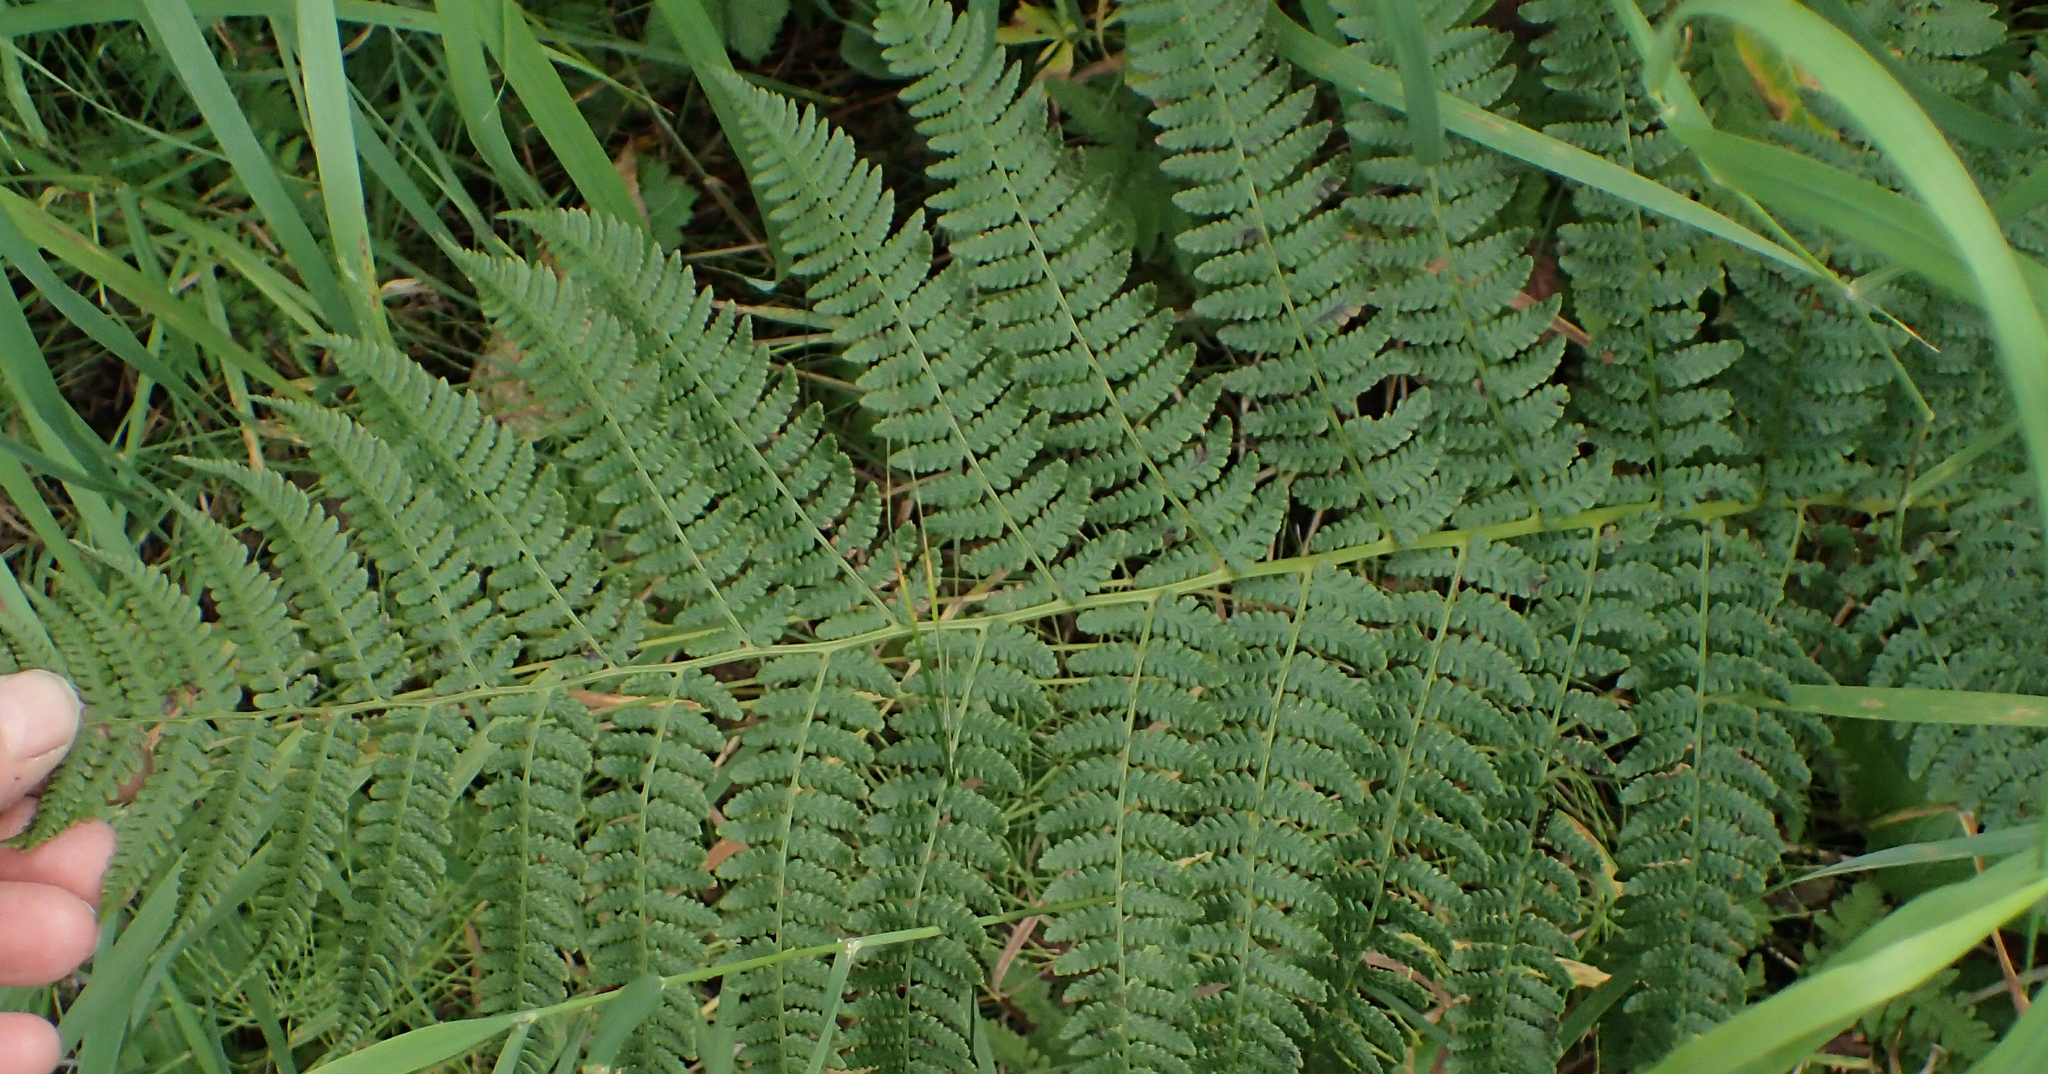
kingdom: Plantae
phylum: Tracheophyta
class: Polypodiopsida
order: Polypodiales
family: Athyriaceae
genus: Athyrium
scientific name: Athyrium filix-femina
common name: Lady fern
